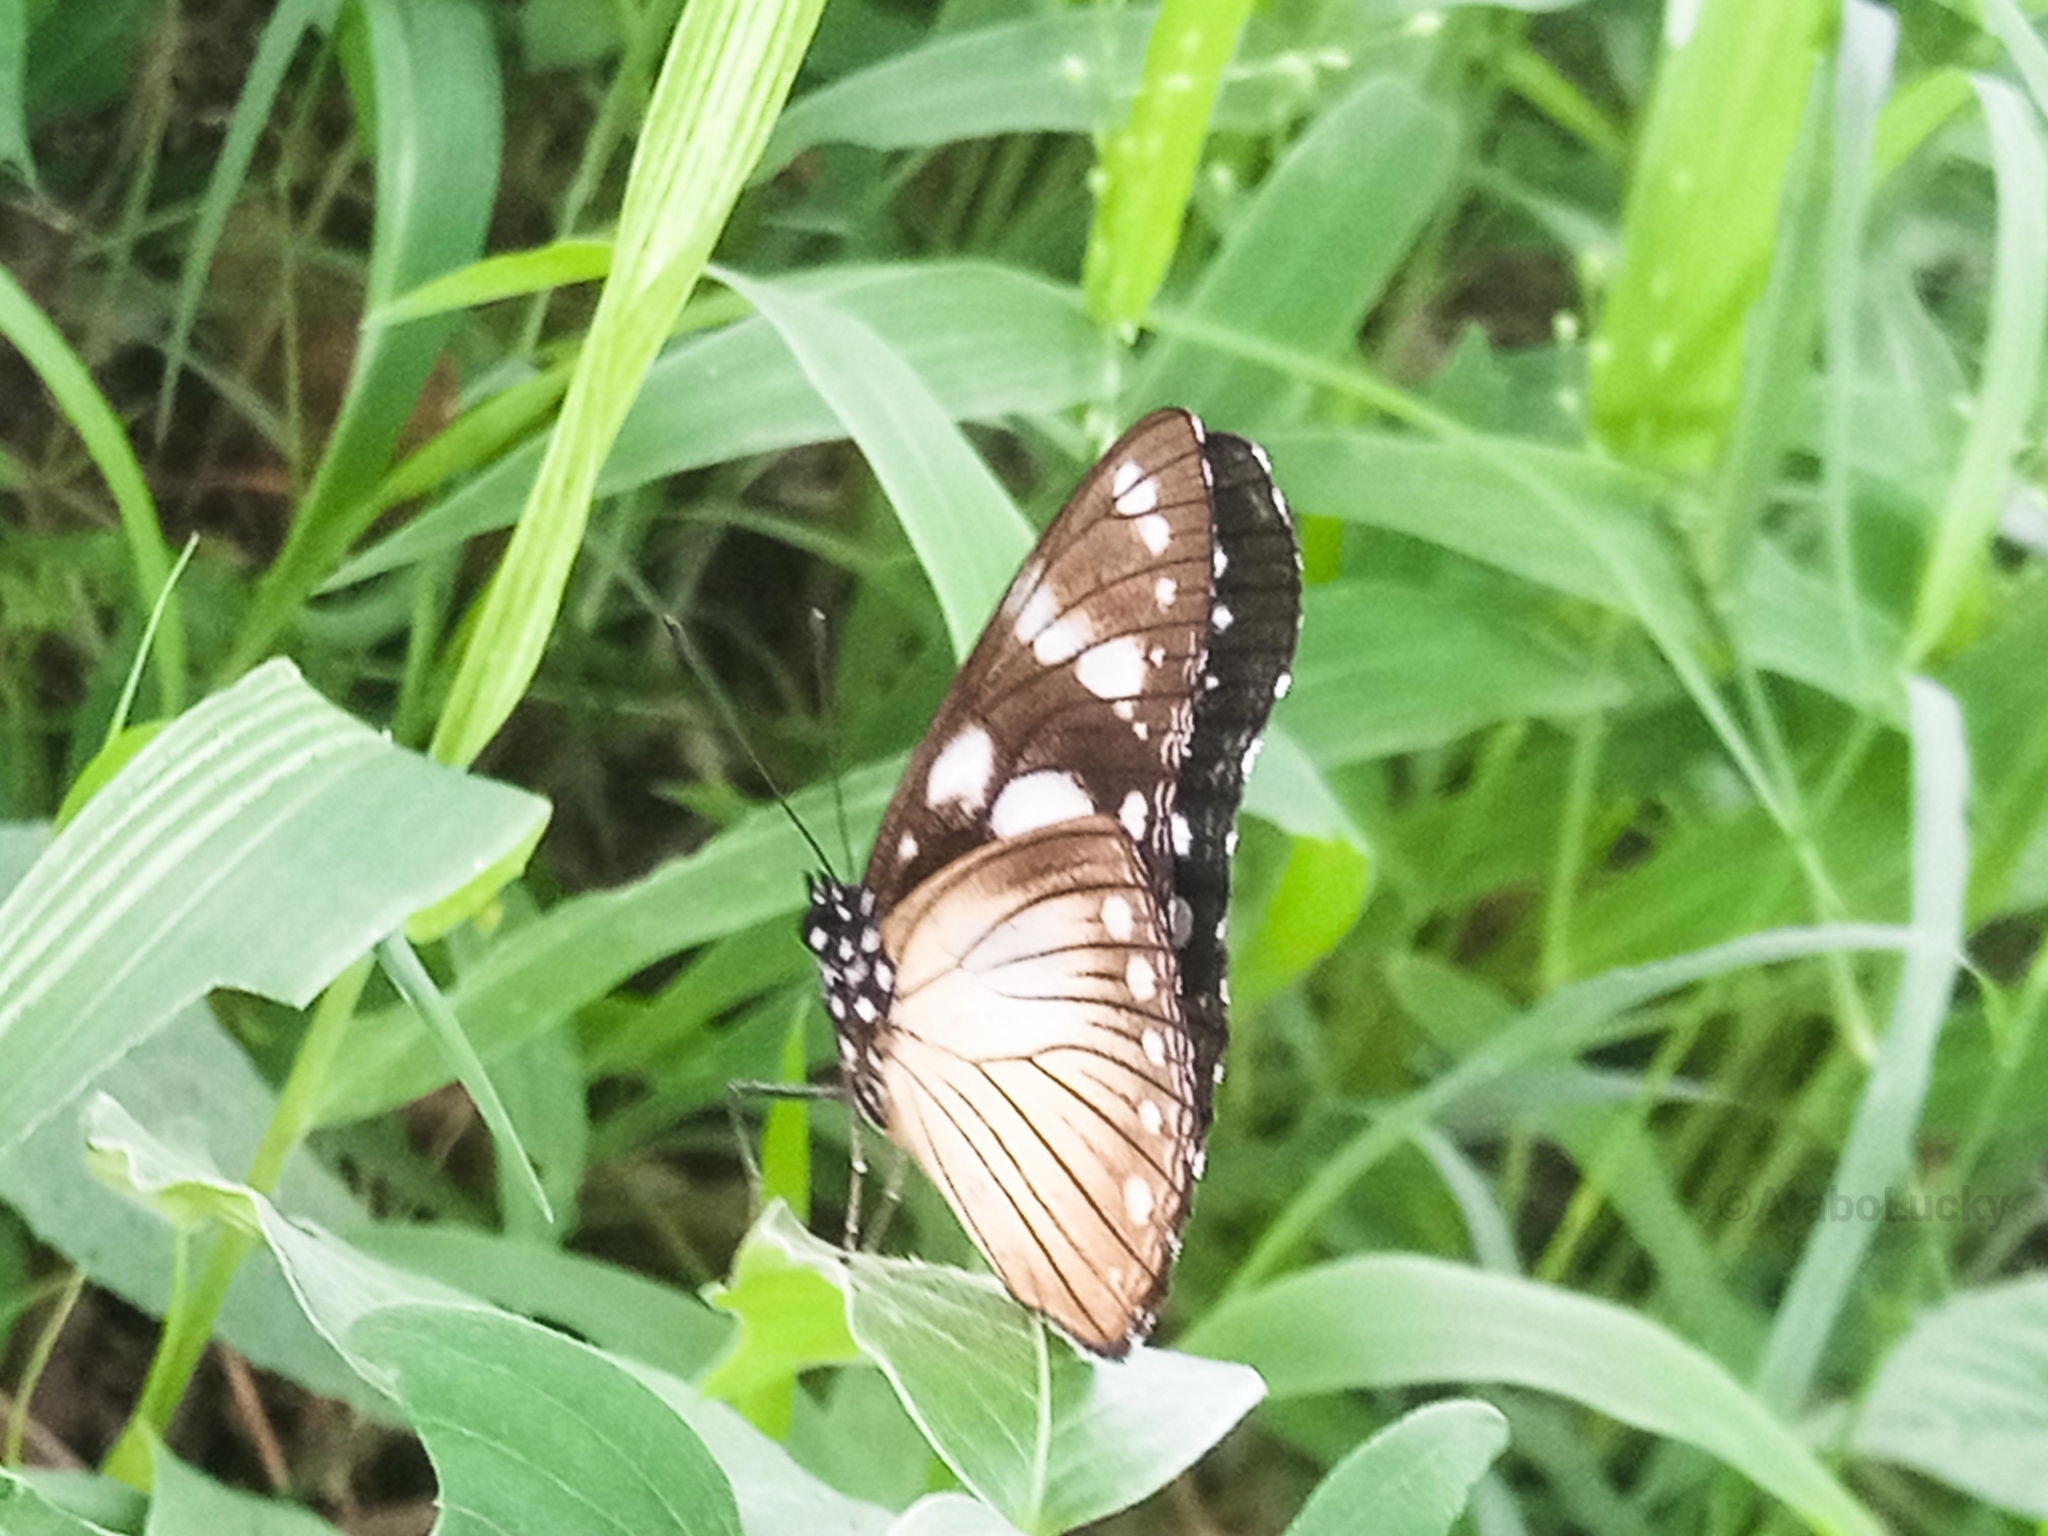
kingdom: Animalia
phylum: Arthropoda
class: Insecta
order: Lepidoptera
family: Nymphalidae
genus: Hypolimnas
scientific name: Hypolimnas dubius
